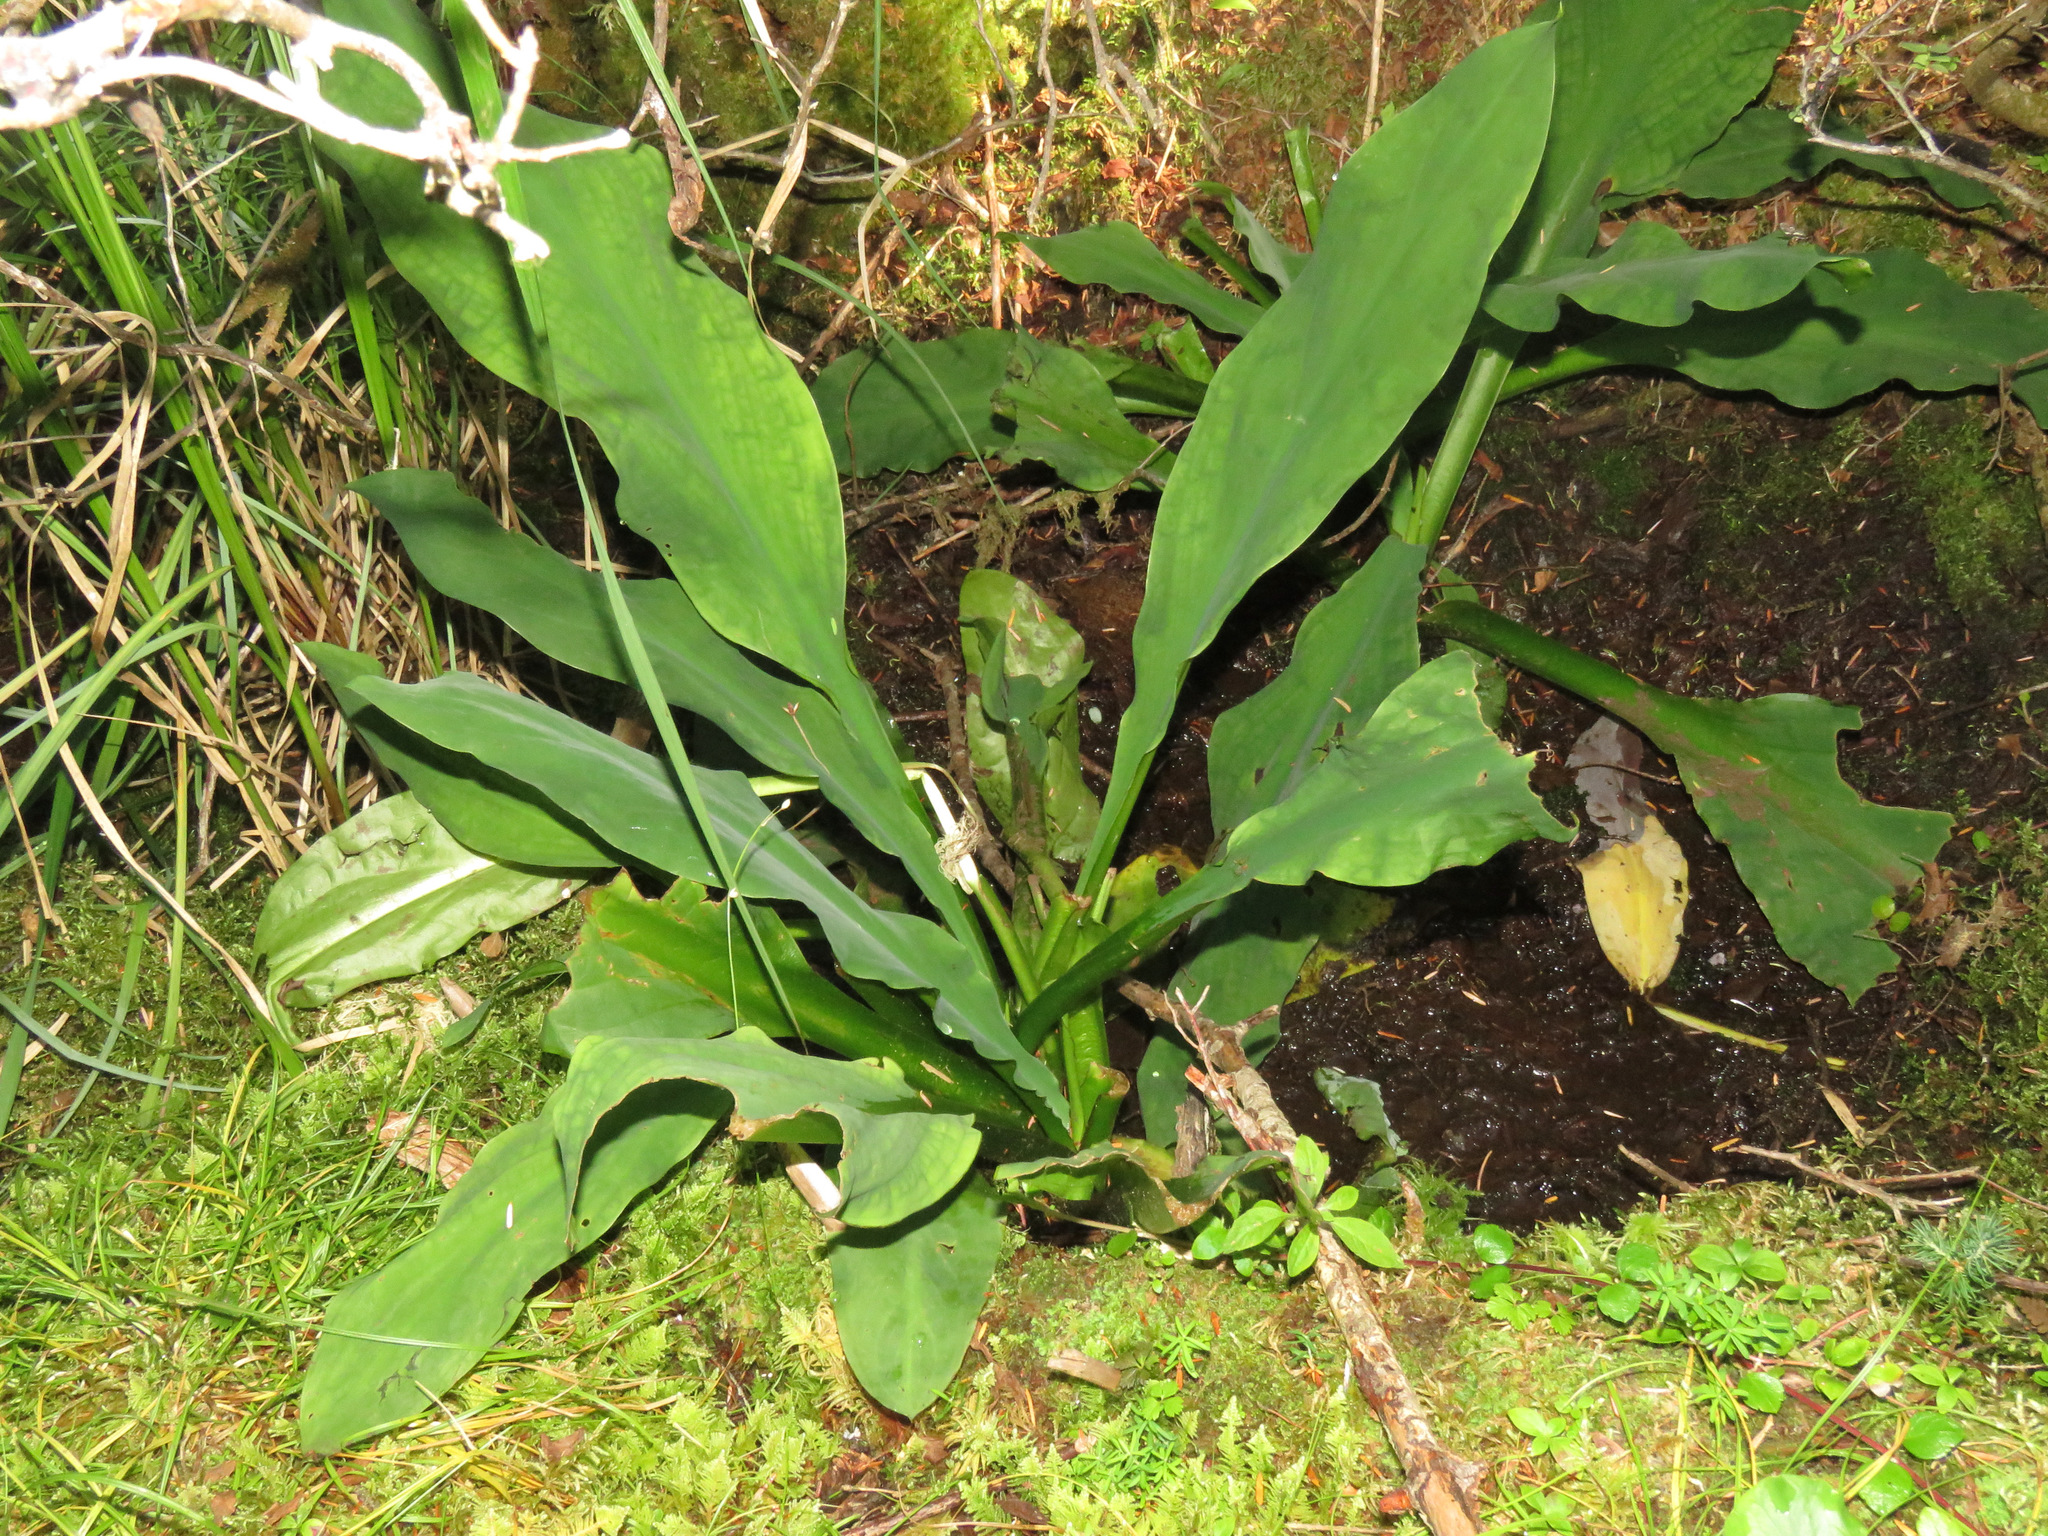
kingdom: Plantae
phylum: Tracheophyta
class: Liliopsida
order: Alismatales
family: Araceae
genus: Lysichiton
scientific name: Lysichiton americanus
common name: American skunk cabbage
